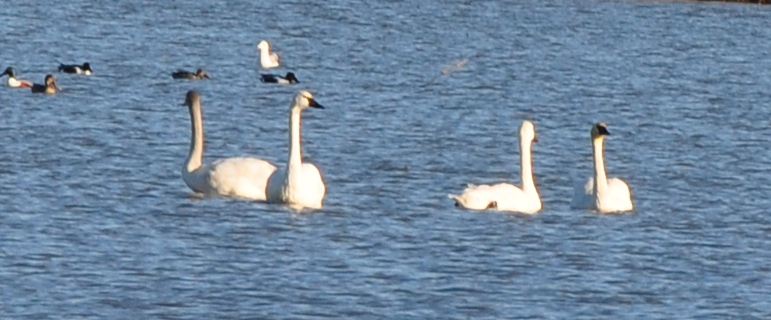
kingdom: Animalia
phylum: Chordata
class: Aves
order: Anseriformes
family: Anatidae
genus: Cygnus
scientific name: Cygnus columbianus
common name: Tundra swan
